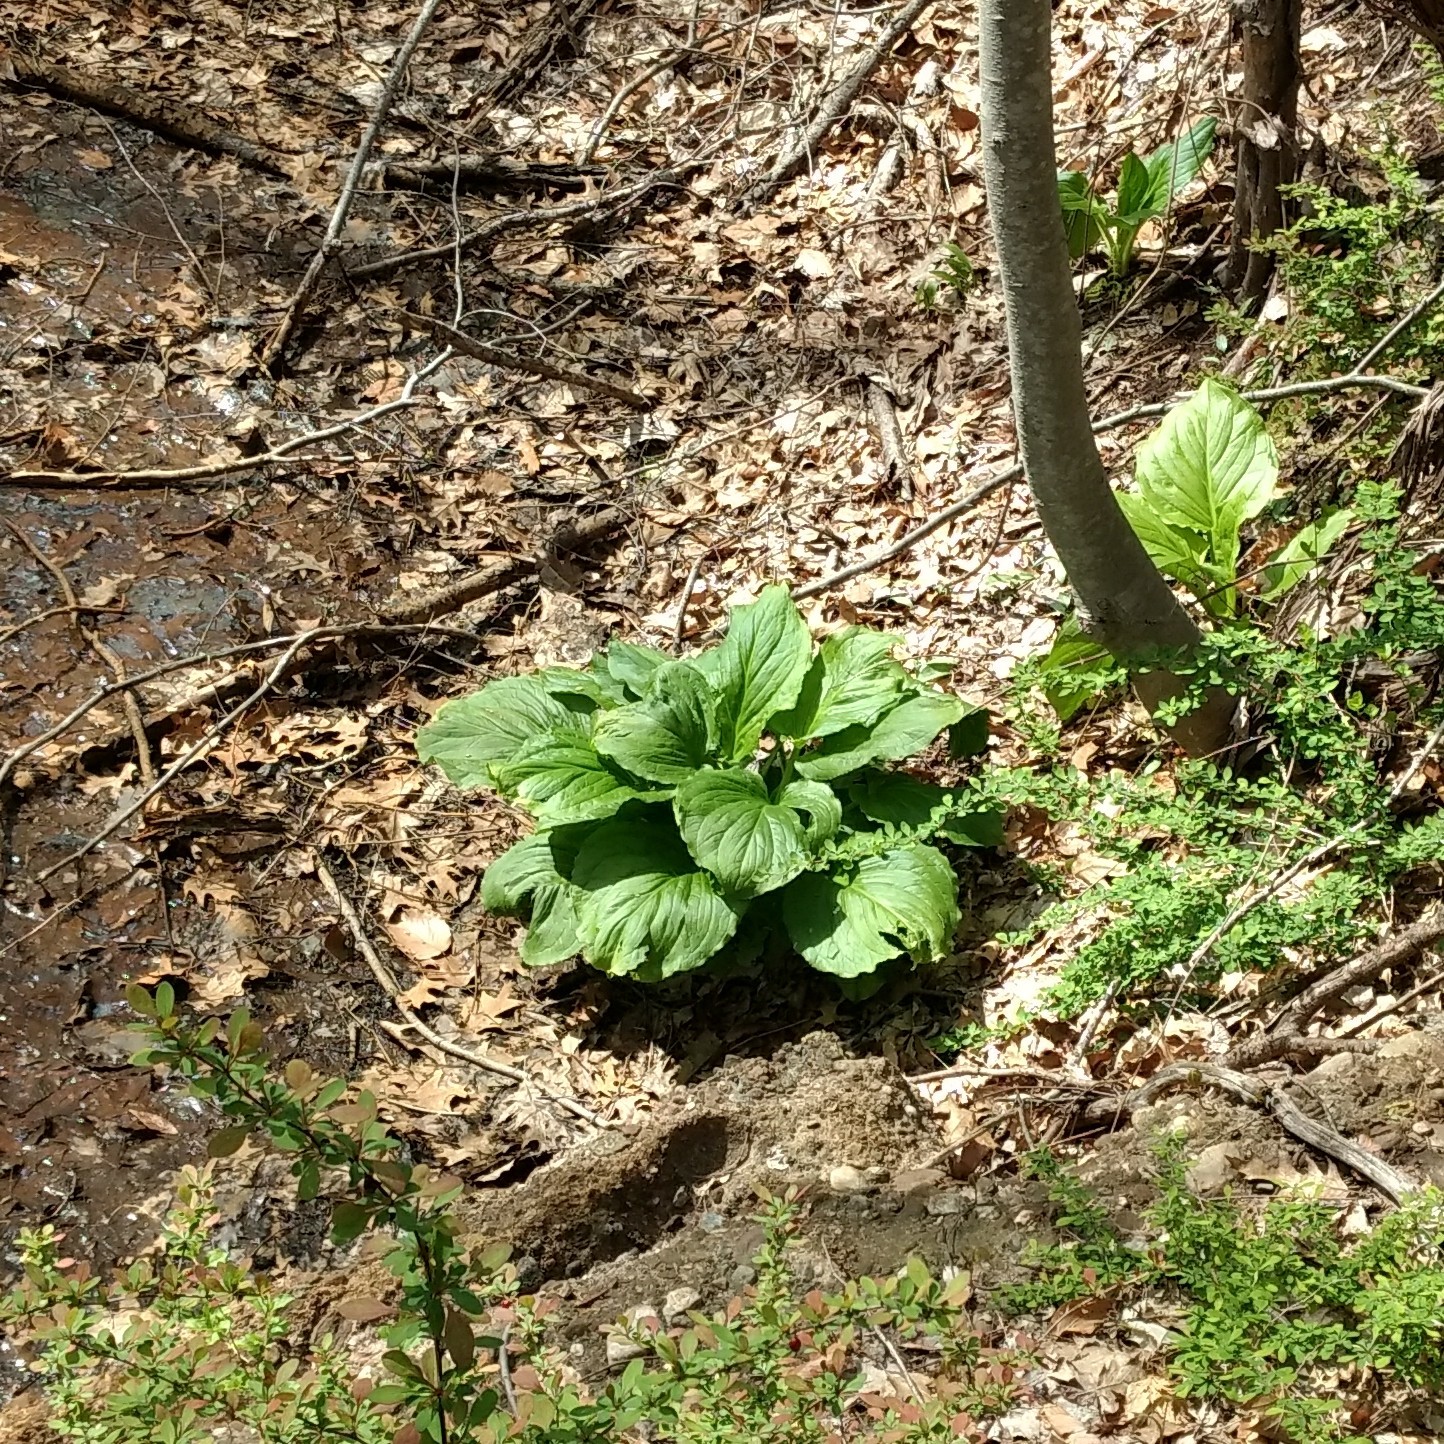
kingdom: Plantae
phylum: Tracheophyta
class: Liliopsida
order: Alismatales
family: Araceae
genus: Symplocarpus
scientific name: Symplocarpus foetidus
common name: Eastern skunk cabbage
